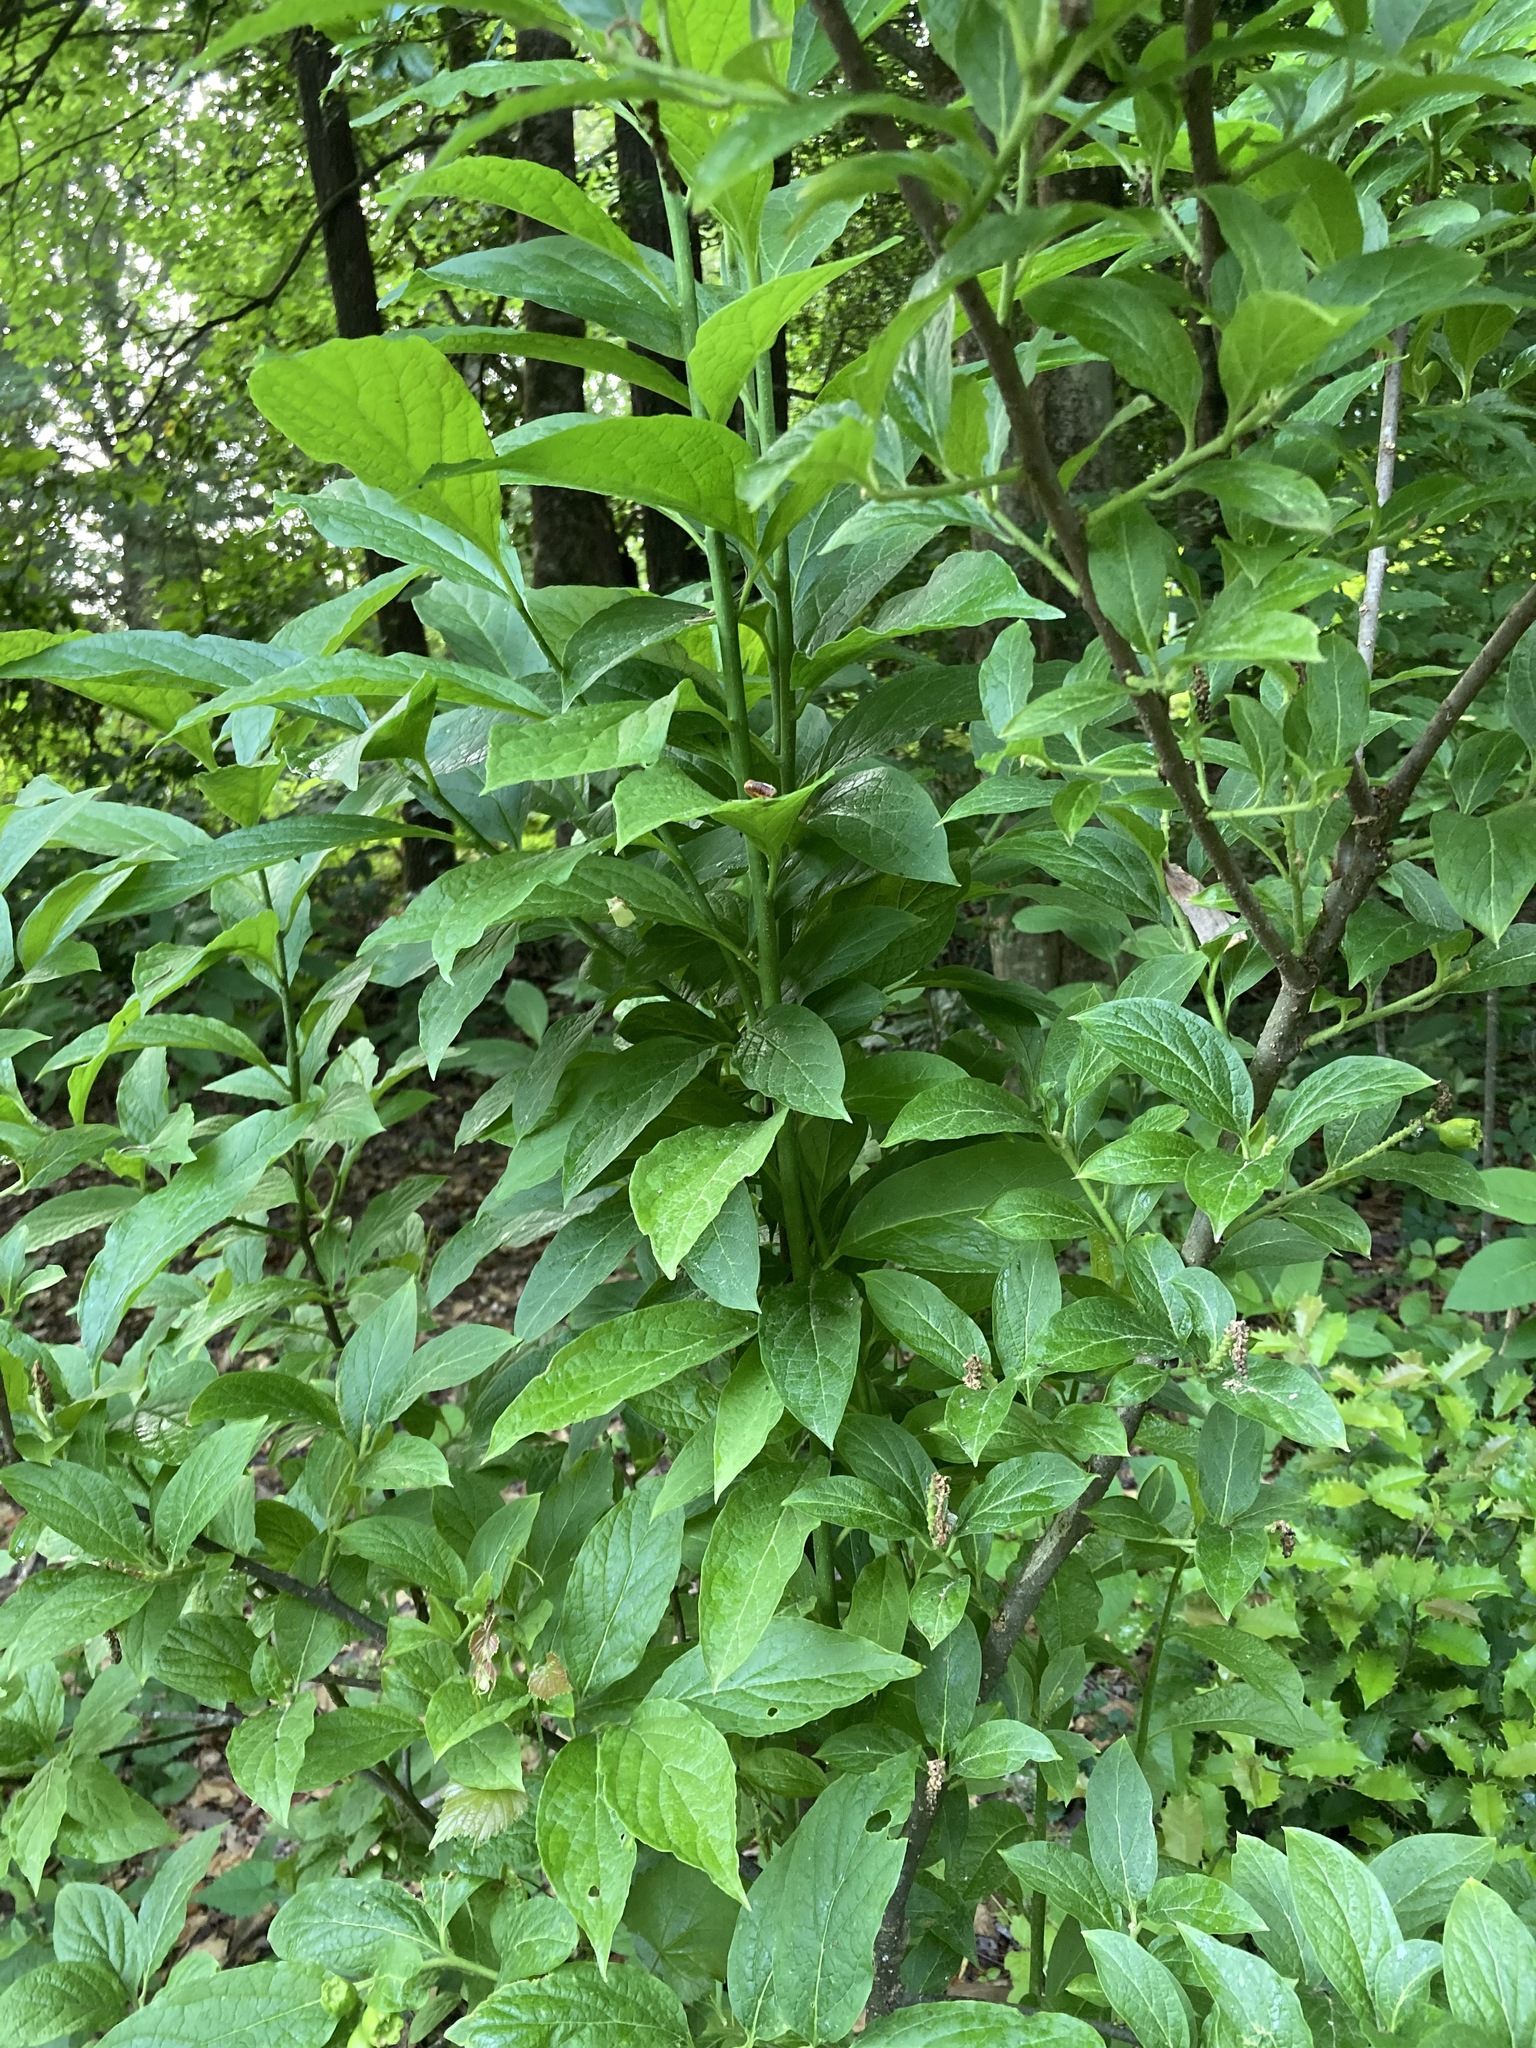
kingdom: Plantae
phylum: Tracheophyta
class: Magnoliopsida
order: Santalales
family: Cervantesiaceae
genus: Pyrularia
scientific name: Pyrularia pubera
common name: Oilnut
